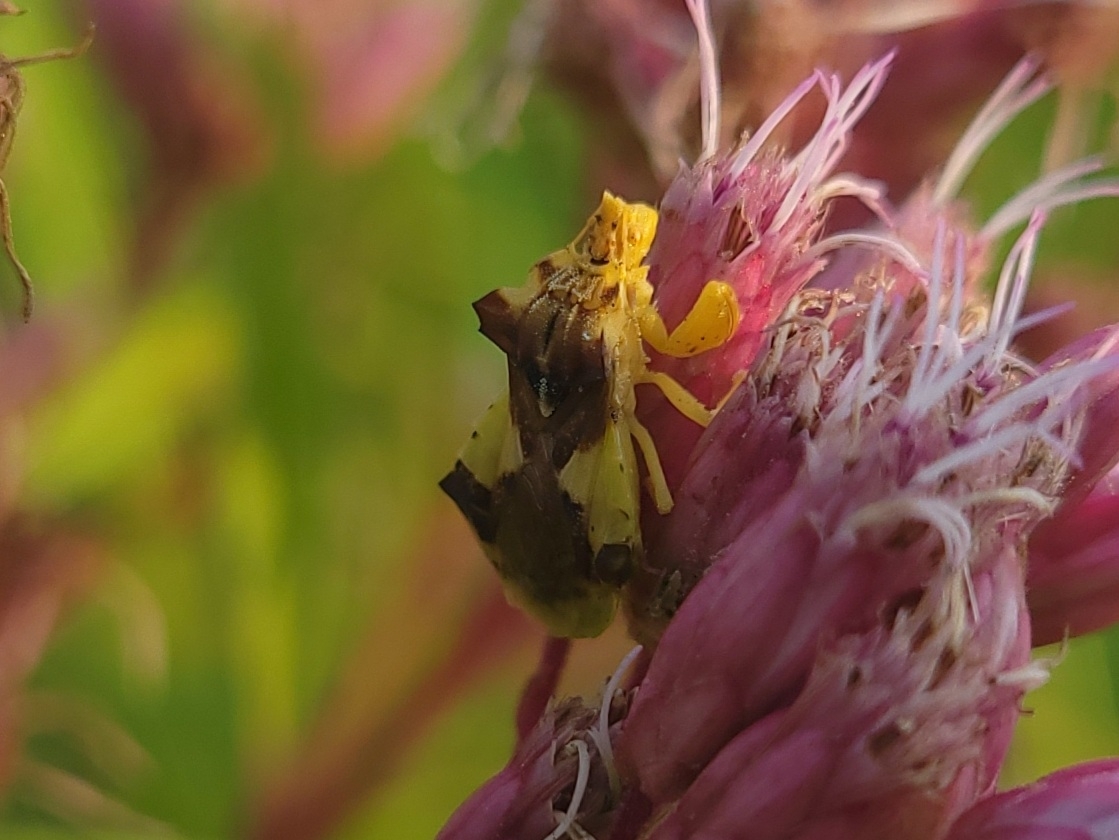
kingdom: Animalia
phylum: Arthropoda
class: Insecta
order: Hemiptera
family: Reduviidae
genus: Phymata
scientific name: Phymata americana
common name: Jagged ambush bug
